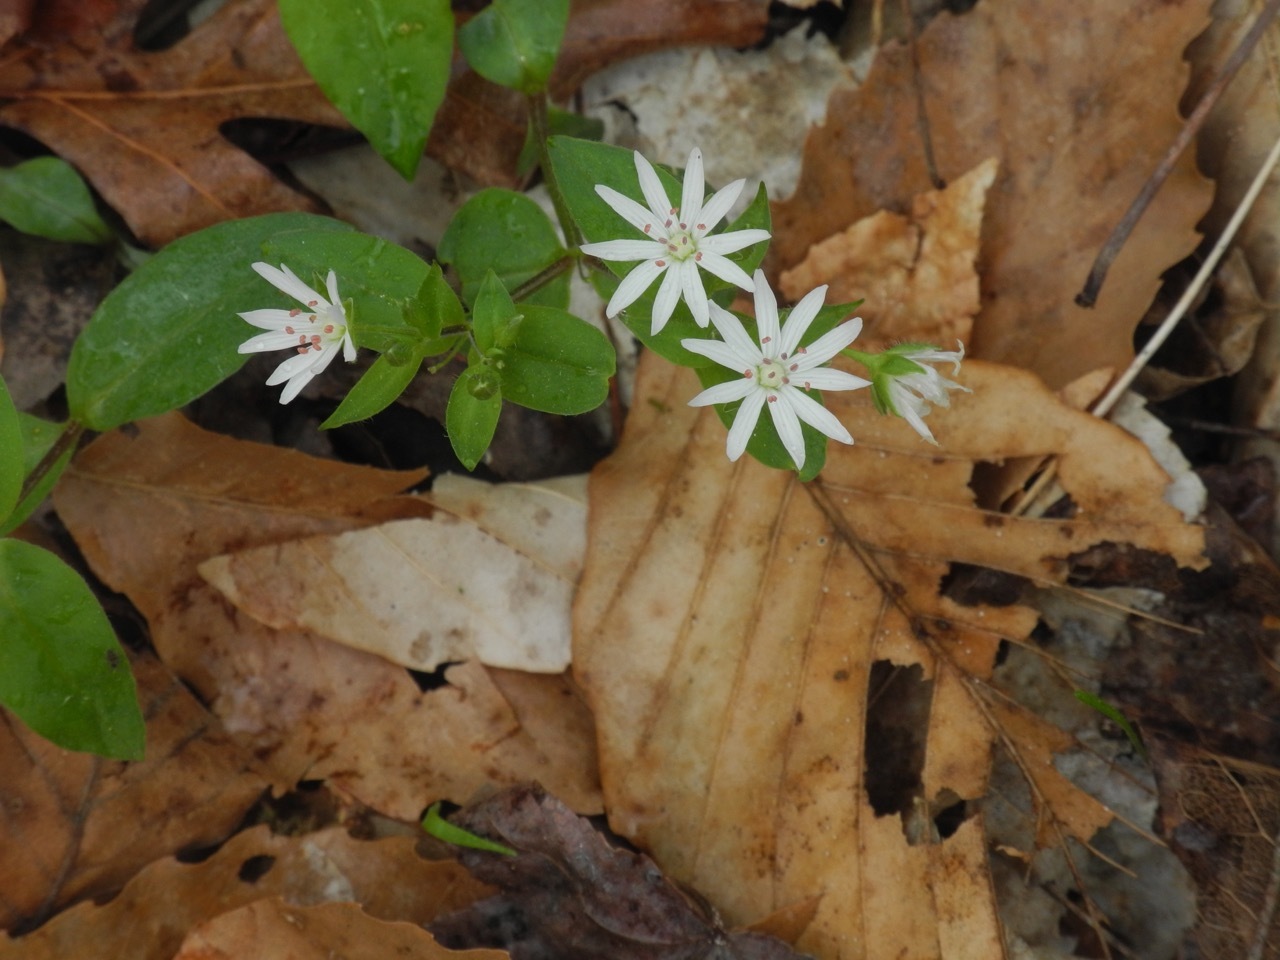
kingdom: Plantae
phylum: Tracheophyta
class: Magnoliopsida
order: Caryophyllales
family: Caryophyllaceae
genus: Stellaria
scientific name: Stellaria pubera
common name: Star chickweed
